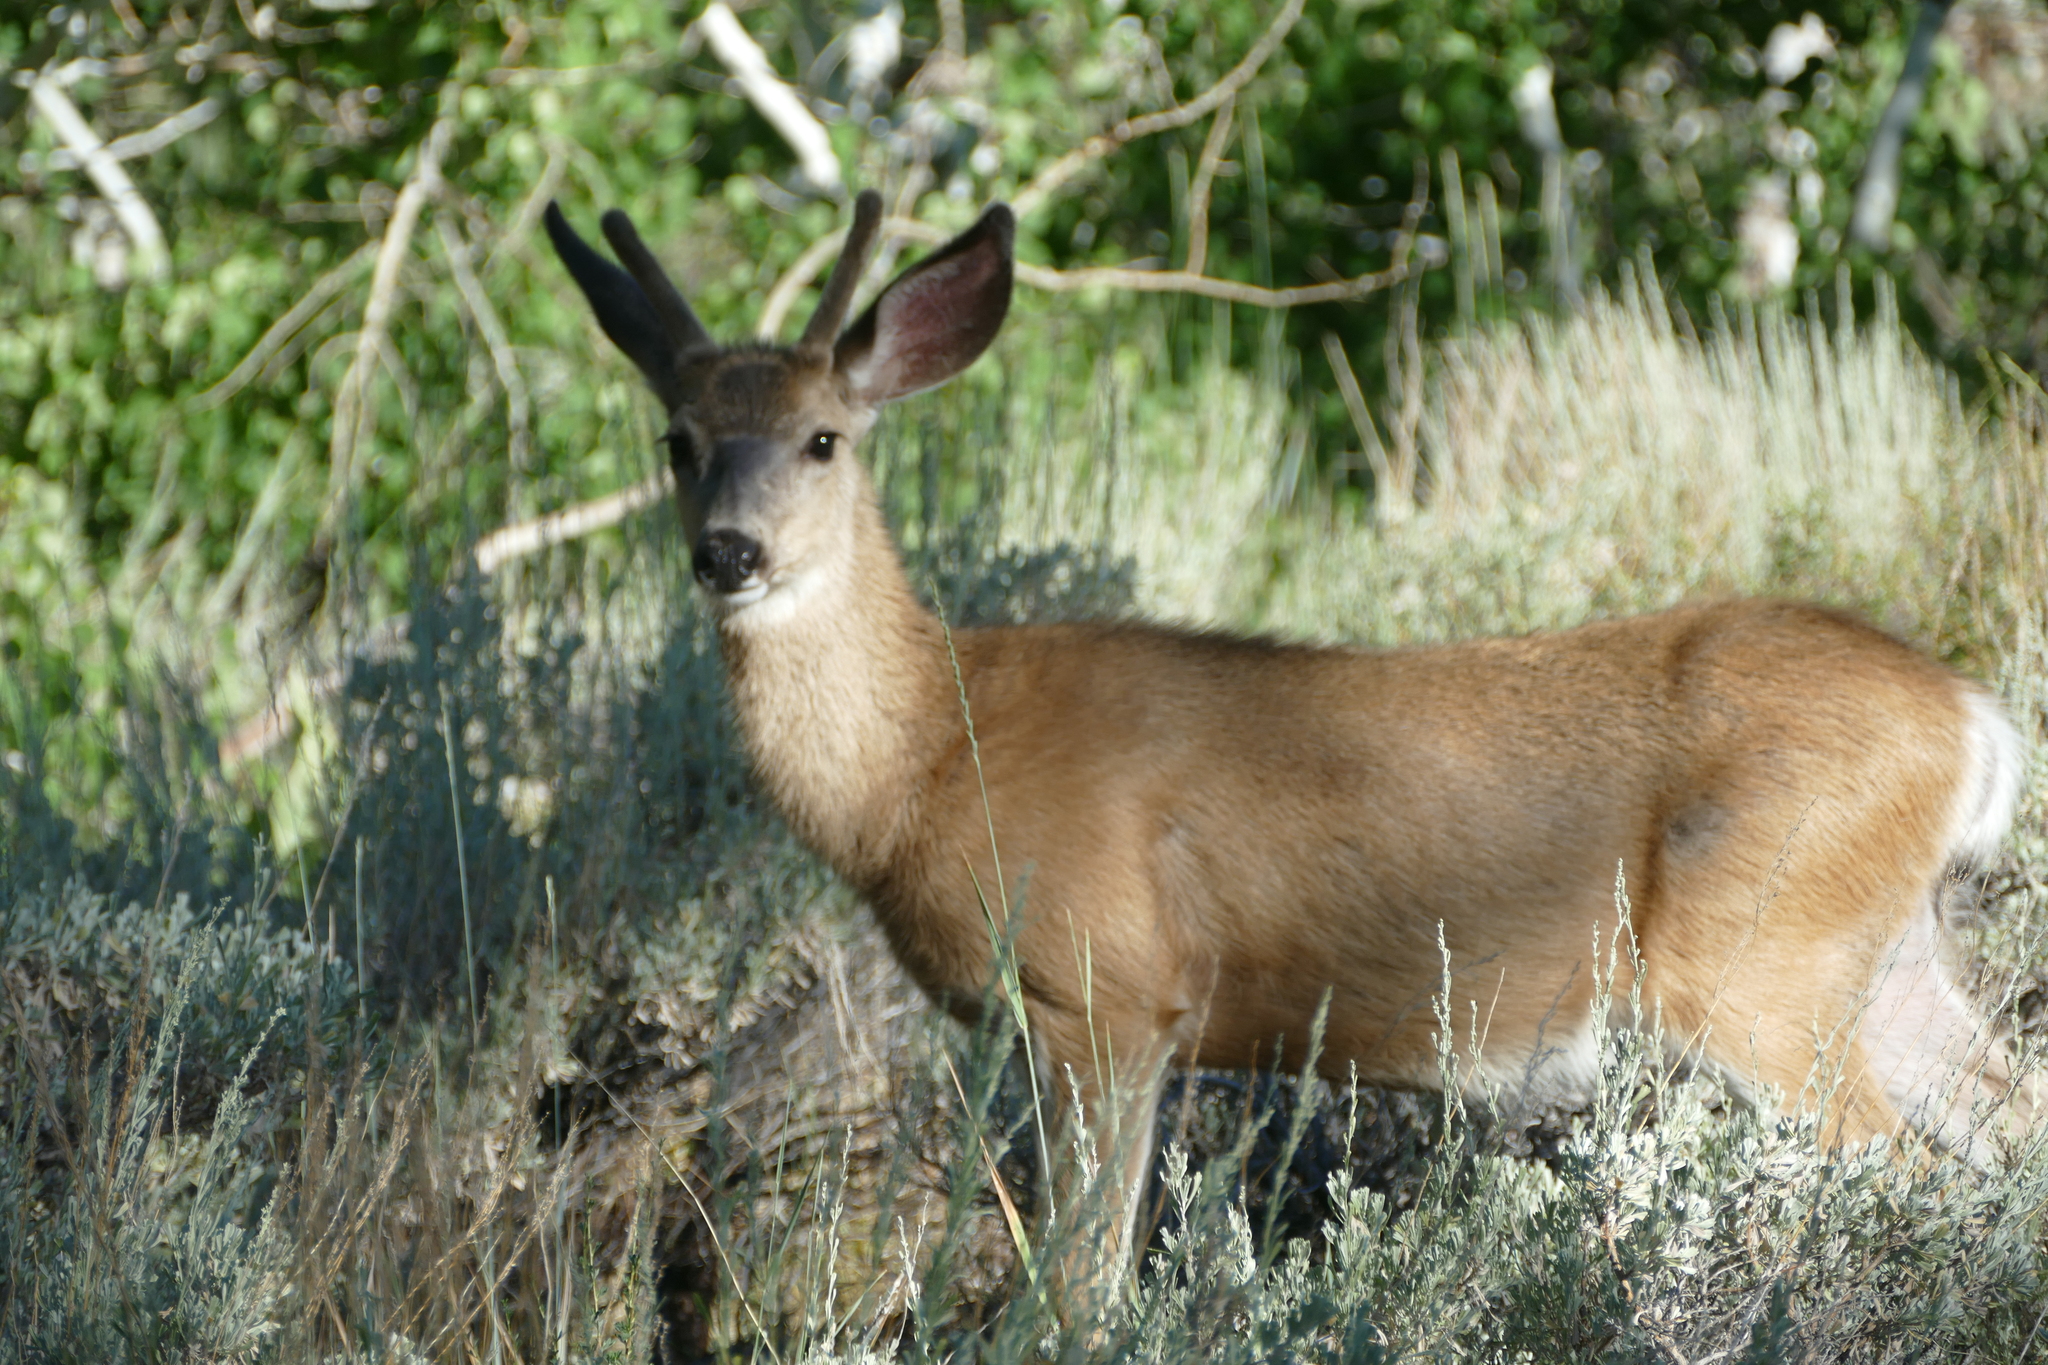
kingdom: Animalia
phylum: Chordata
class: Mammalia
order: Artiodactyla
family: Cervidae
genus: Odocoileus
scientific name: Odocoileus hemionus
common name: Mule deer
